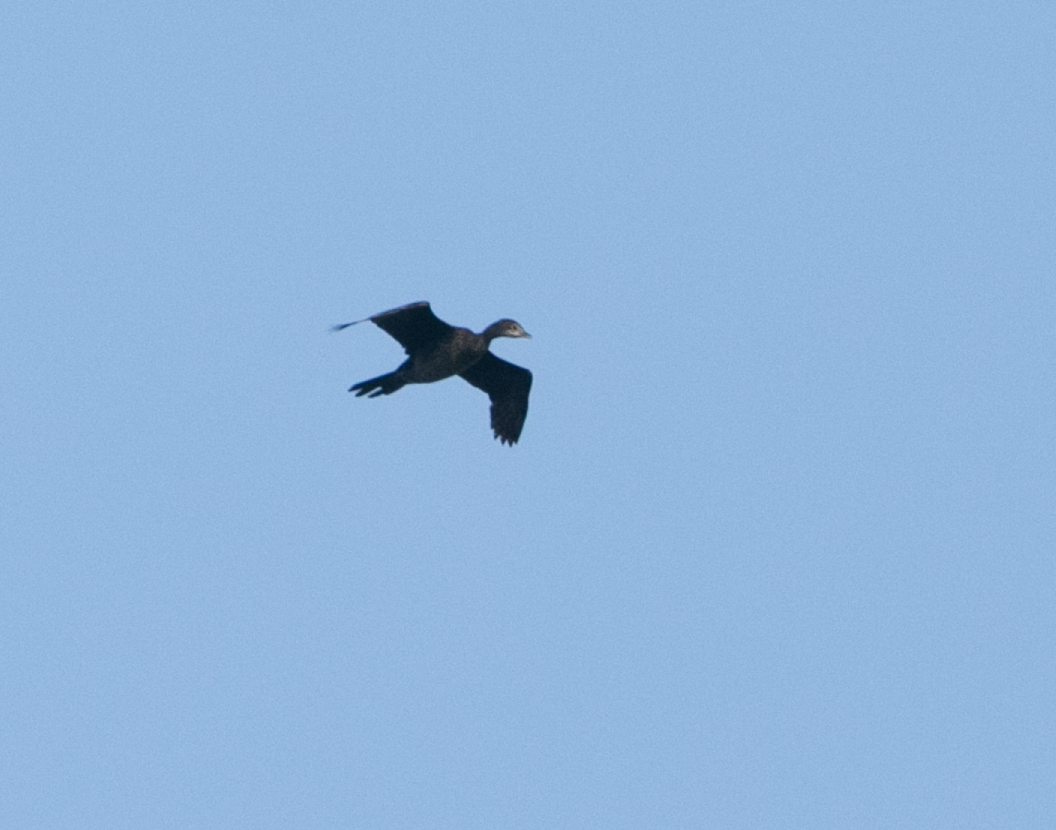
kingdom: Animalia
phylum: Chordata
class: Aves
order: Suliformes
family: Phalacrocoracidae
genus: Microcarbo
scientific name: Microcarbo pygmaeus
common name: Pygmy cormorant
